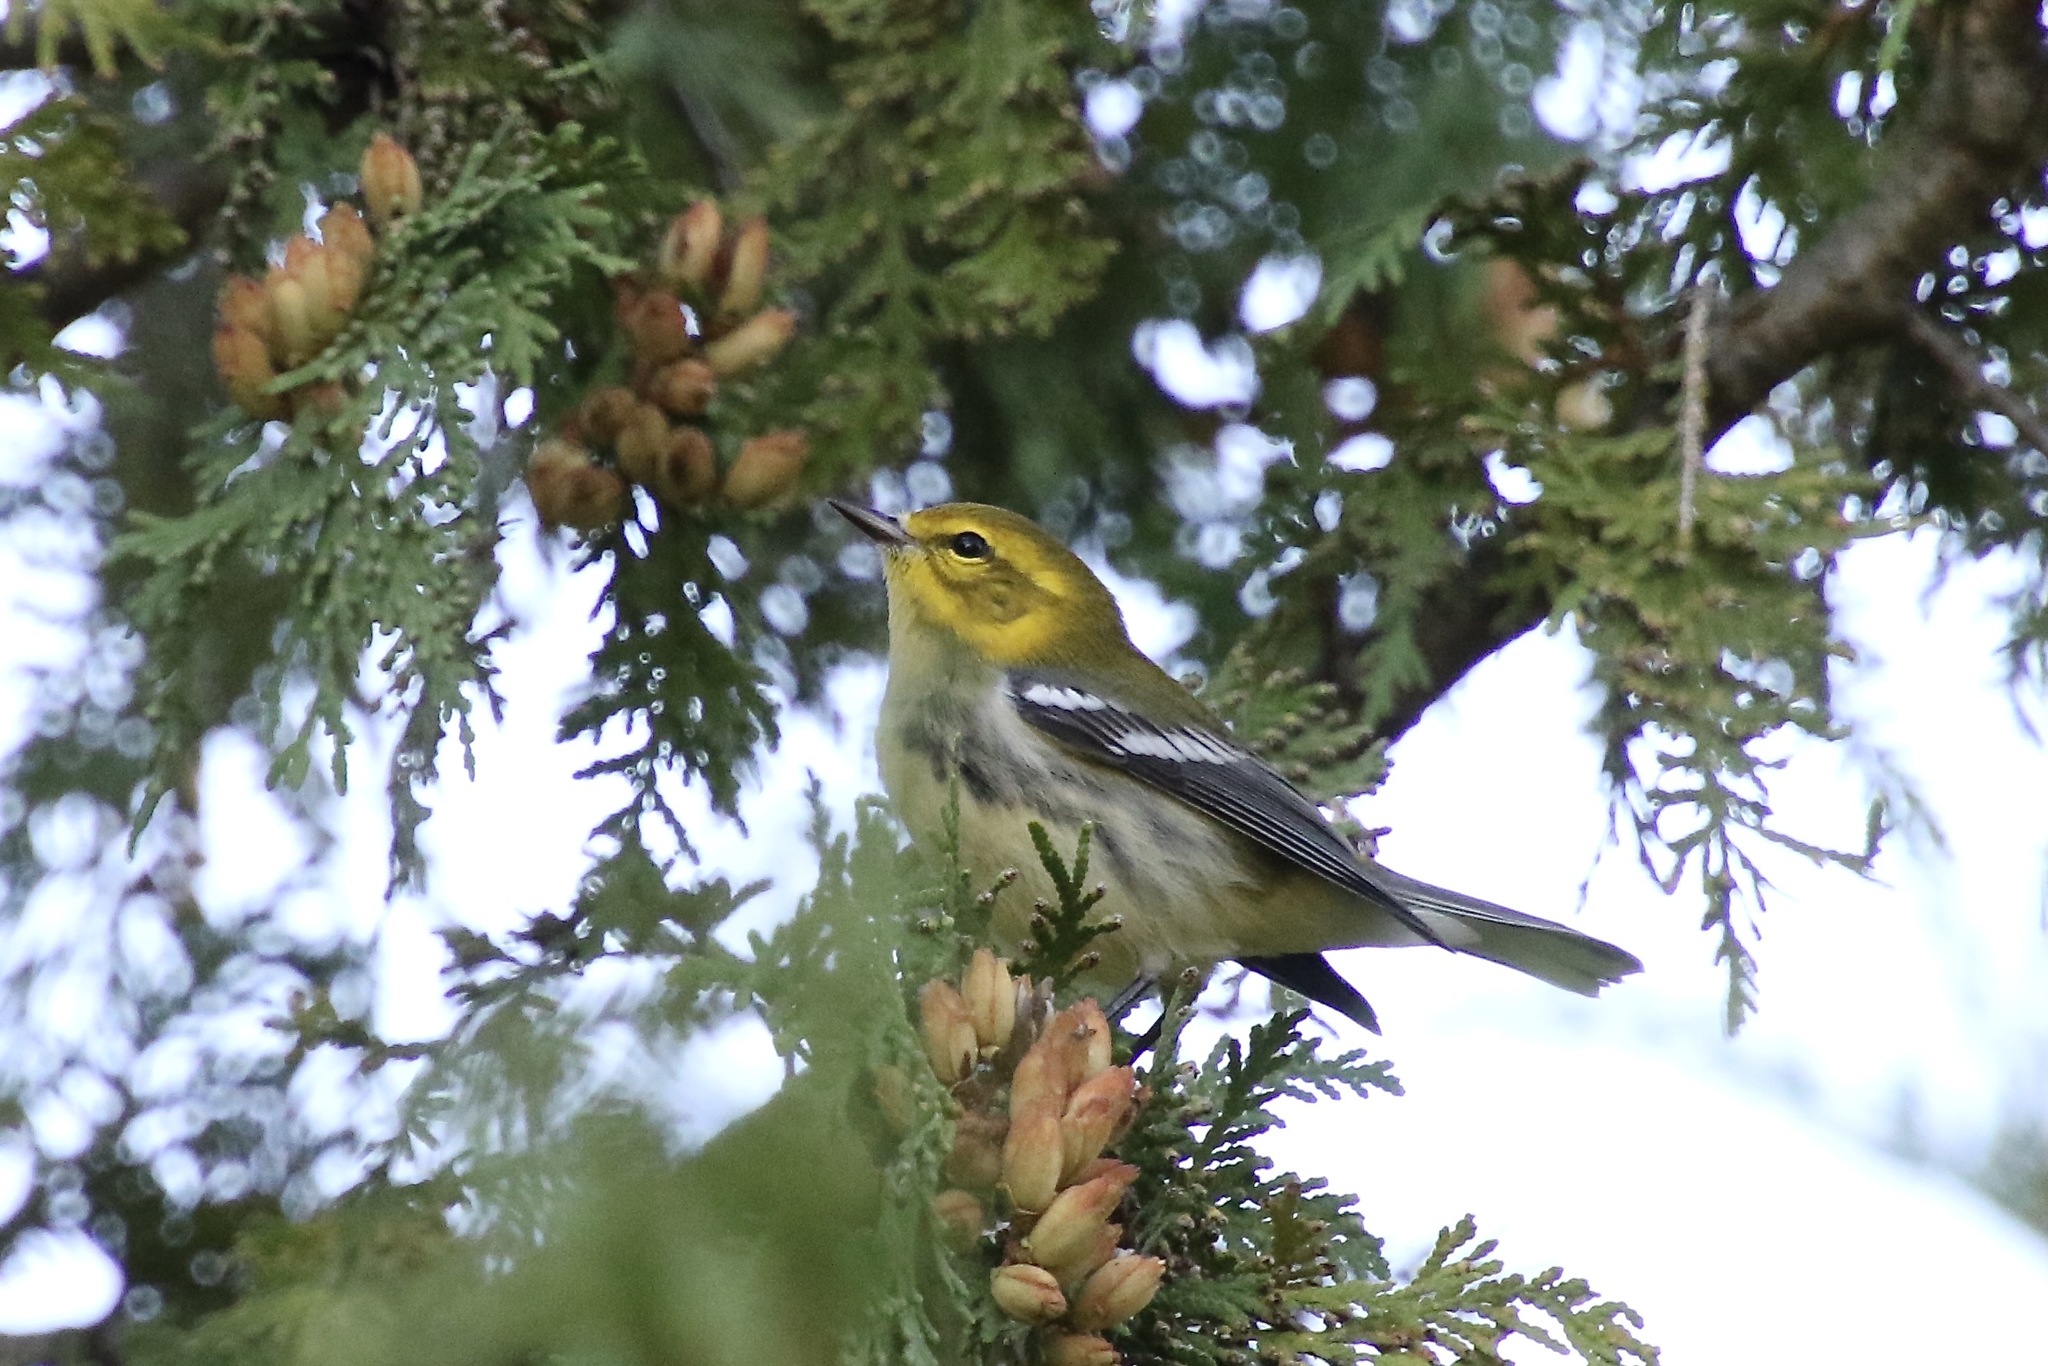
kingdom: Animalia
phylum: Chordata
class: Aves
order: Passeriformes
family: Parulidae
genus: Setophaga
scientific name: Setophaga virens
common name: Black-throated green warbler
